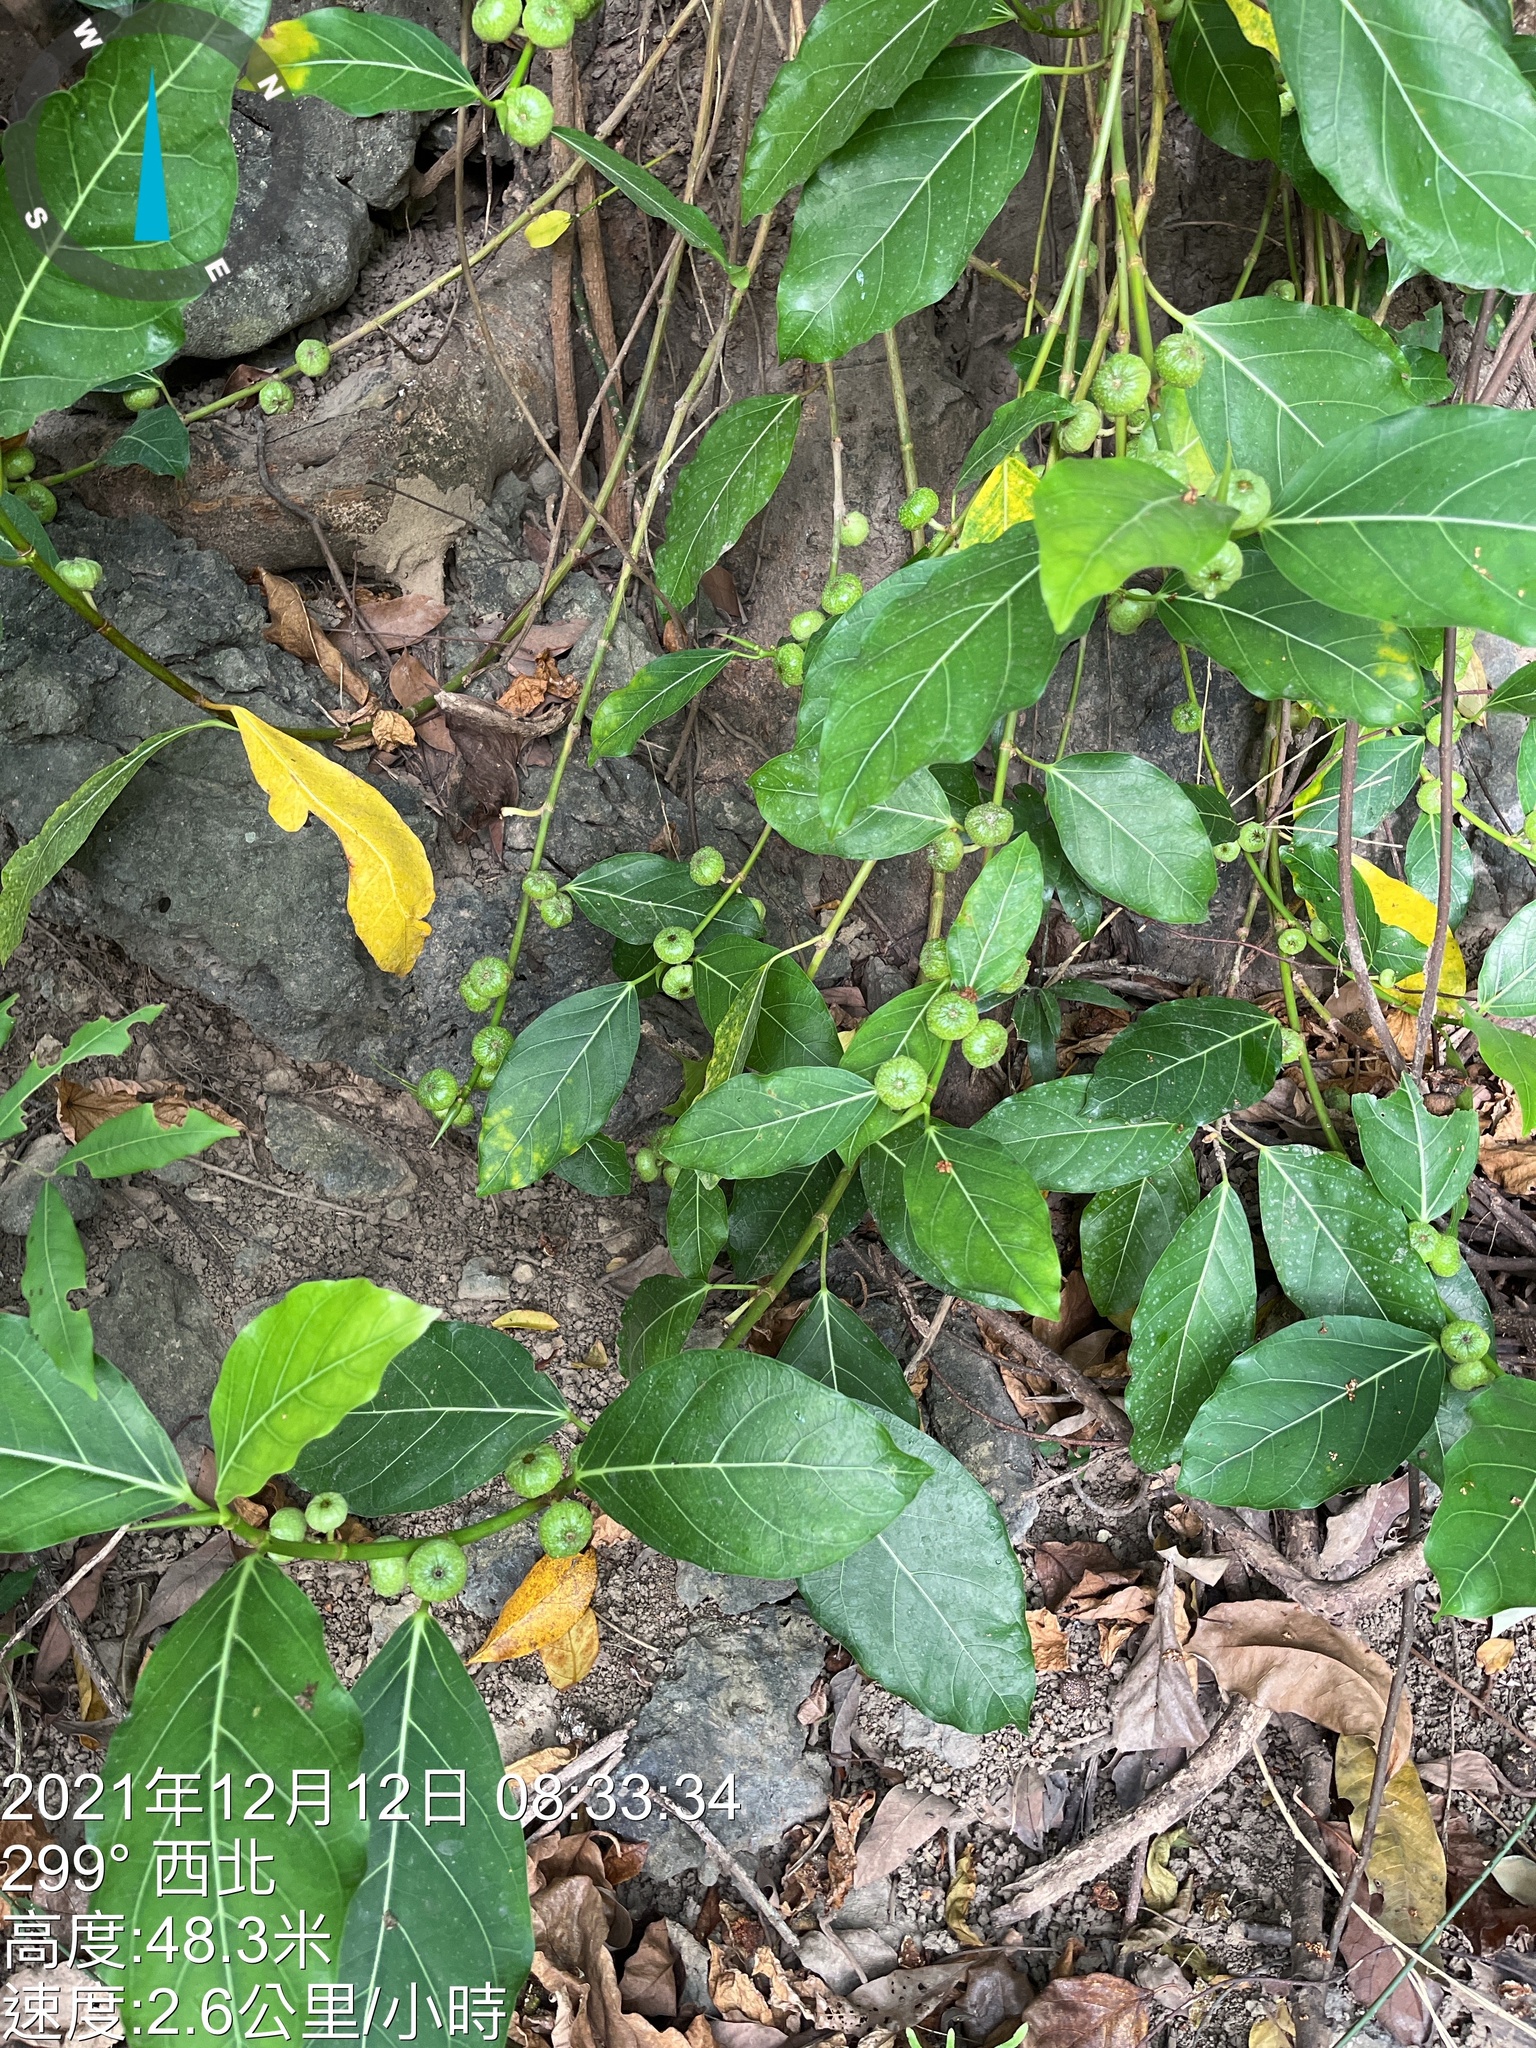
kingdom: Plantae
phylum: Tracheophyta
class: Magnoliopsida
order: Rosales
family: Moraceae
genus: Ficus
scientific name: Ficus septica
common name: Septic fig
